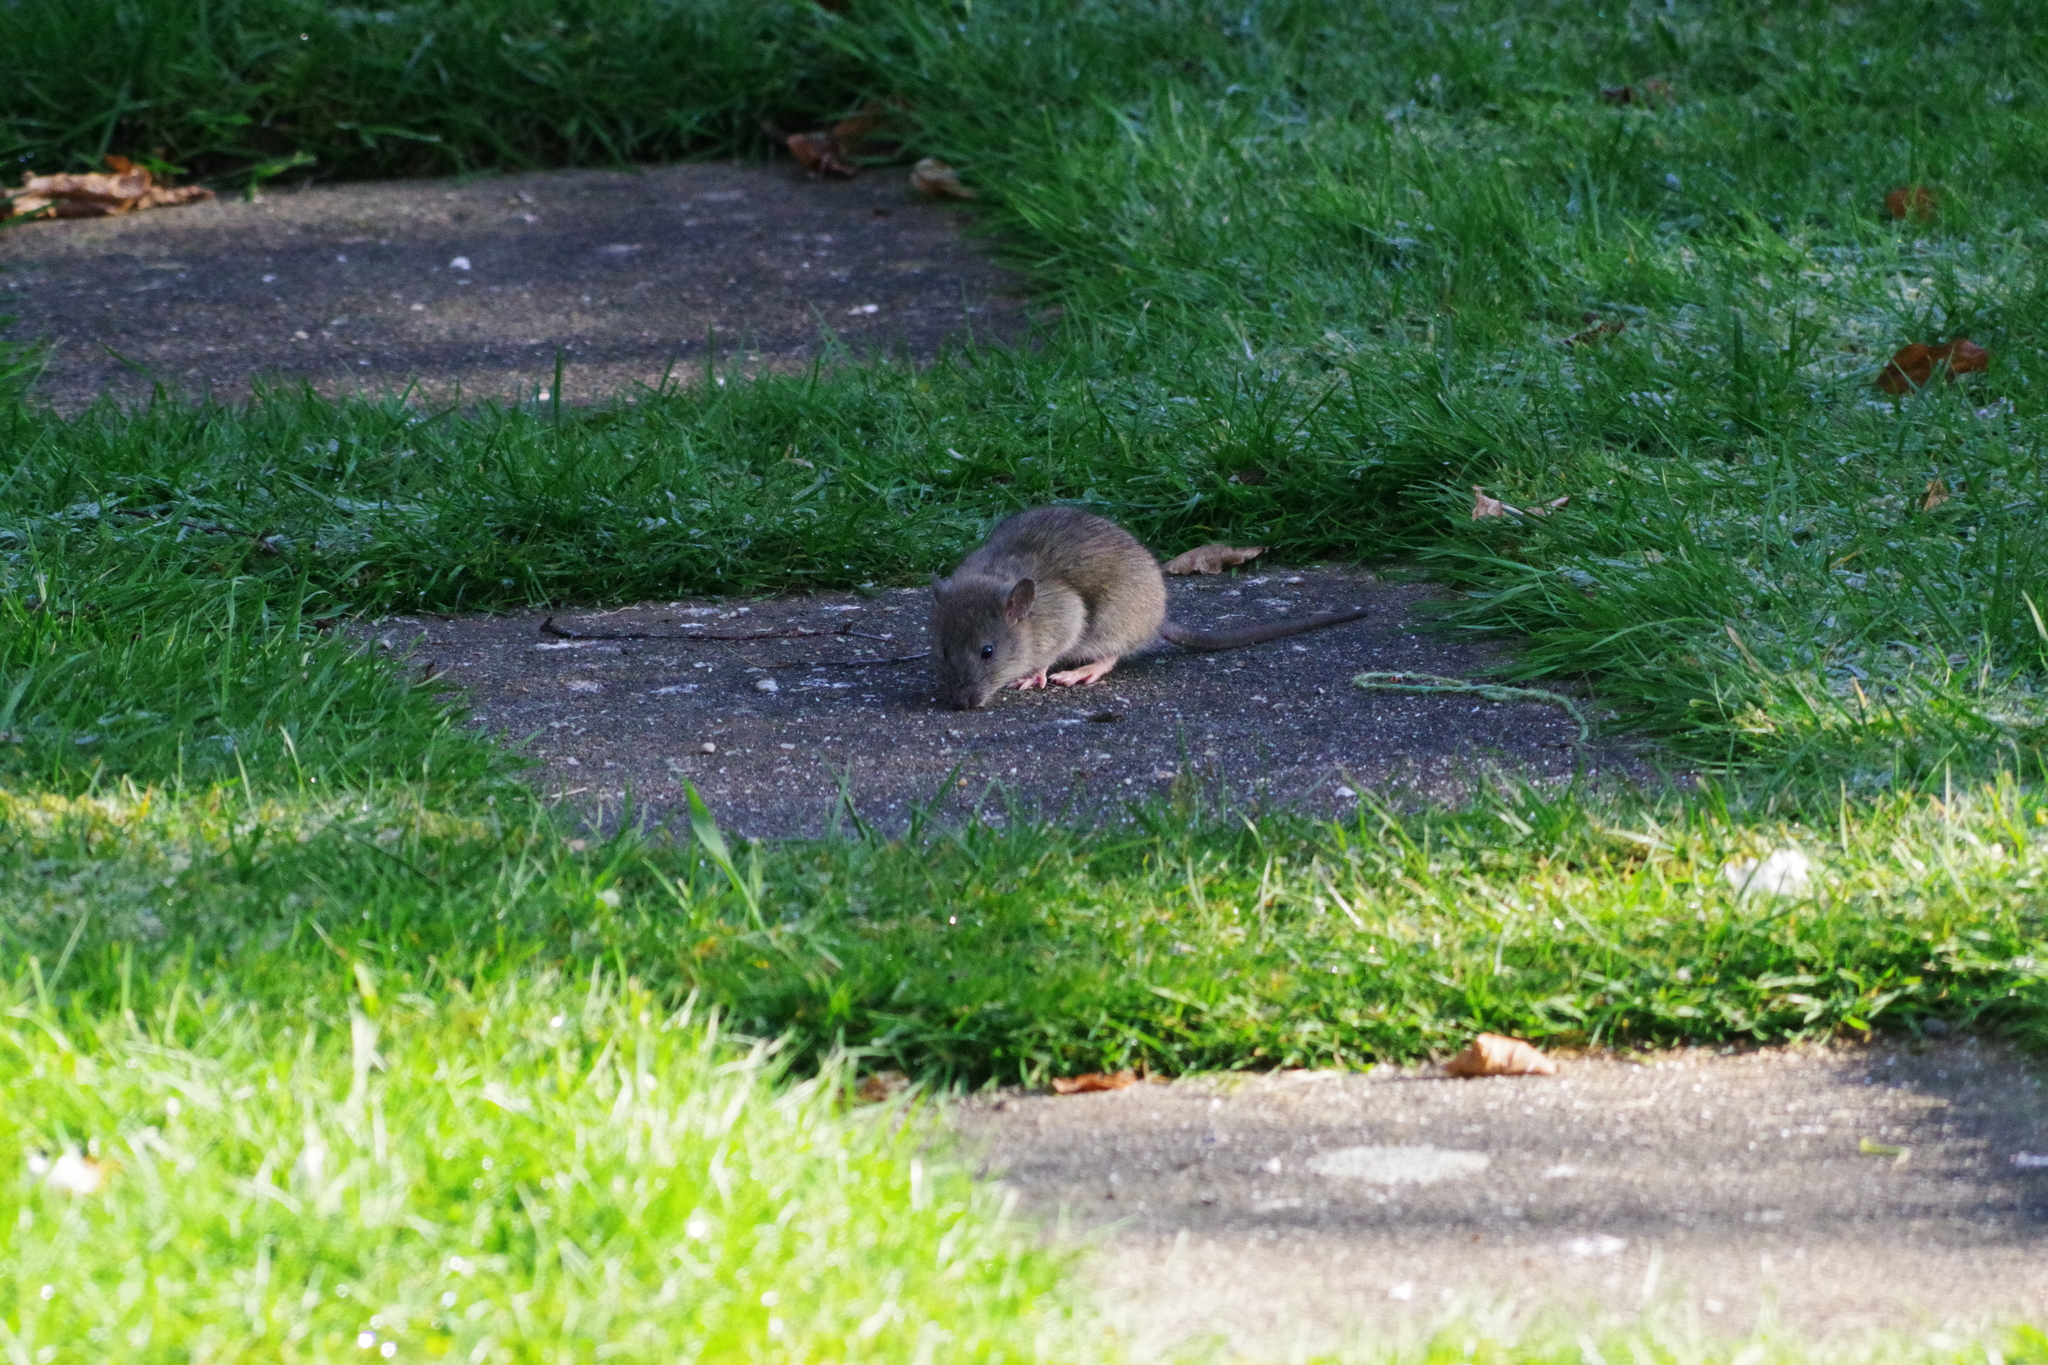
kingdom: Animalia
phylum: Chordata
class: Mammalia
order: Rodentia
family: Muridae
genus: Rattus
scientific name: Rattus norvegicus
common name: Brown rat
